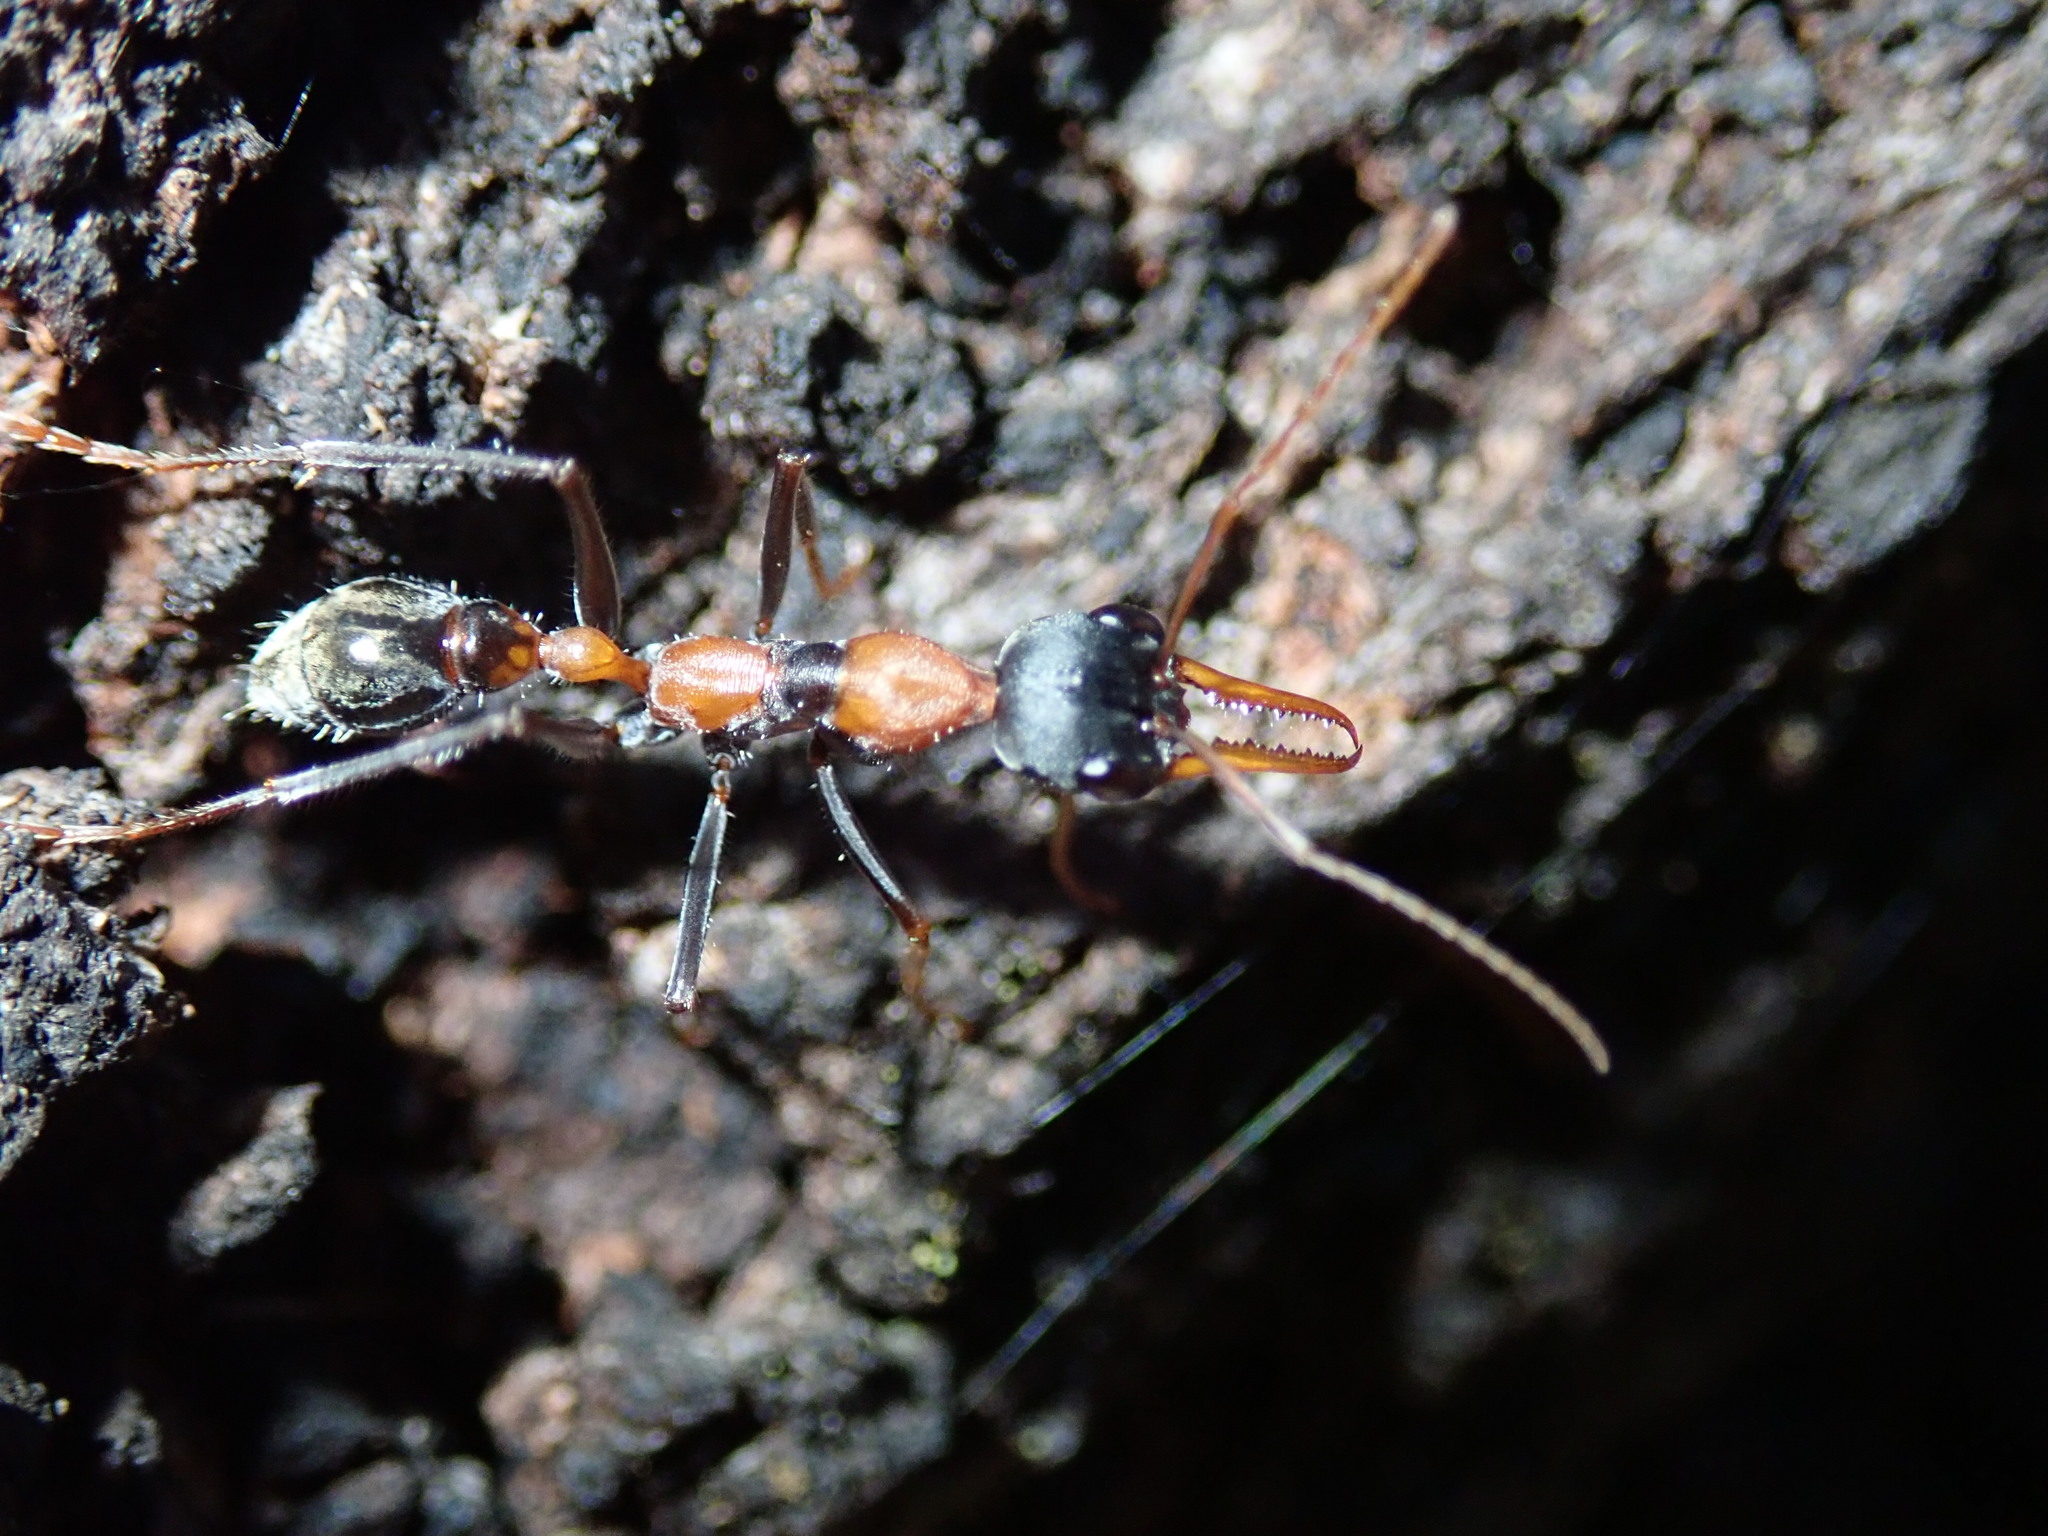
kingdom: Animalia
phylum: Arthropoda
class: Insecta
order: Hymenoptera
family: Formicidae
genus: Myrmecia
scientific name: Myrmecia nigrocincta
